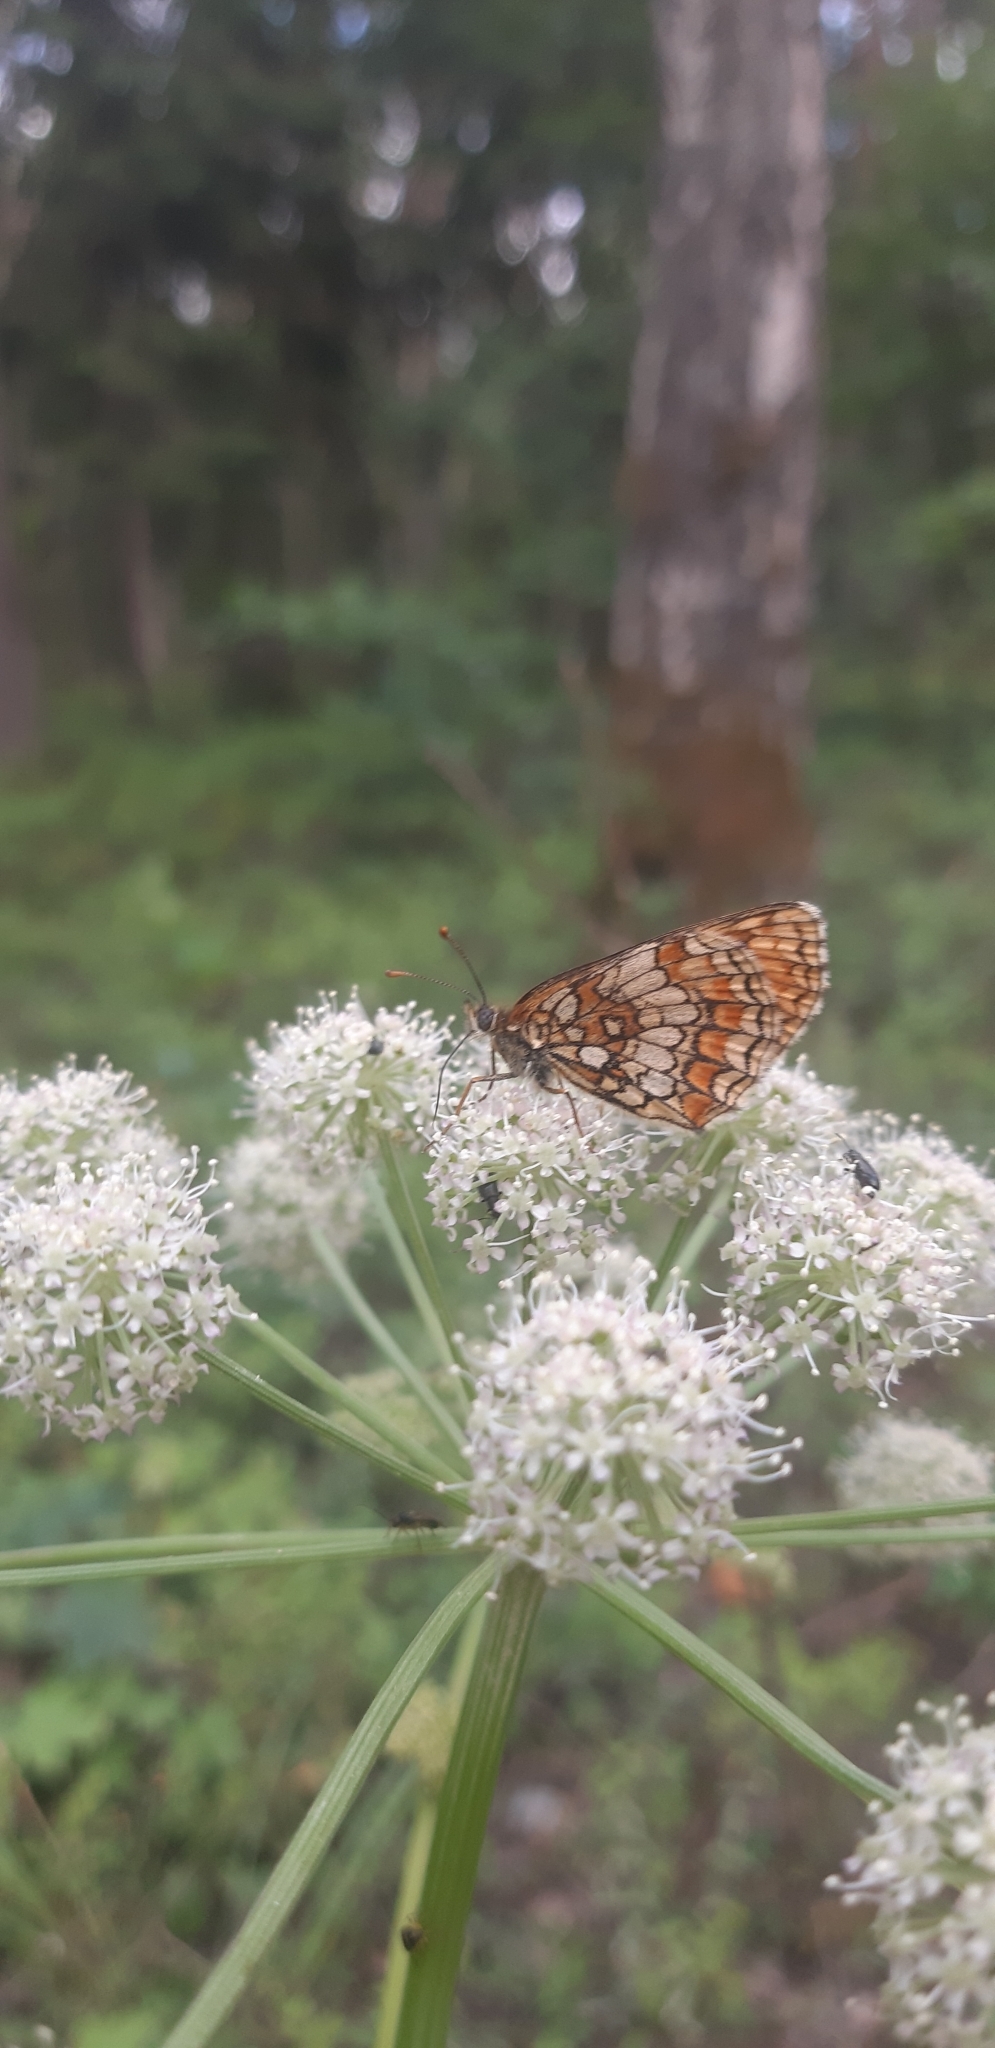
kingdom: Animalia
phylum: Arthropoda
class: Insecta
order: Lepidoptera
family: Nymphalidae
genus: Melitaea
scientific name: Melitaea athalia
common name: Heath fritillary
